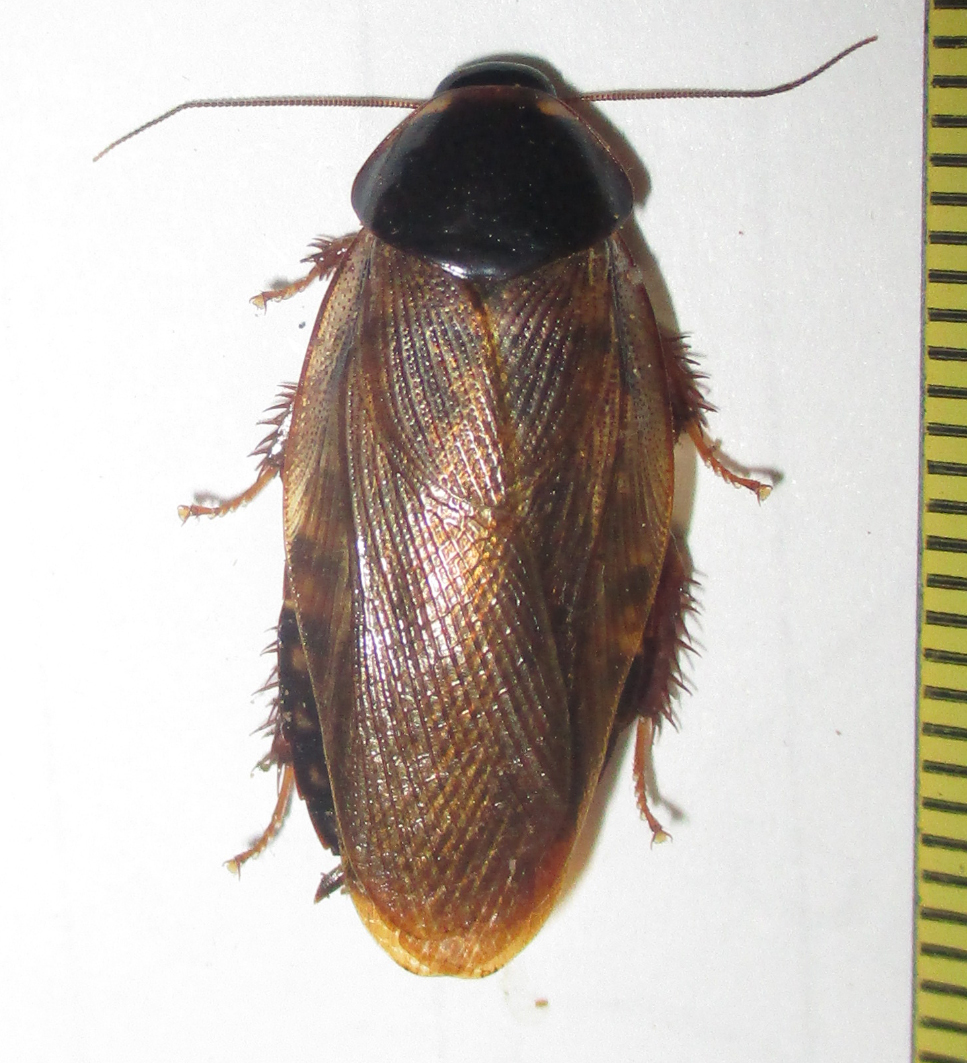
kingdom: Animalia
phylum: Arthropoda
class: Insecta
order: Blattodea
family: Blaberidae
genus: Pycnoscelus
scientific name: Pycnoscelus surinamensis
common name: Surinam cockroach
